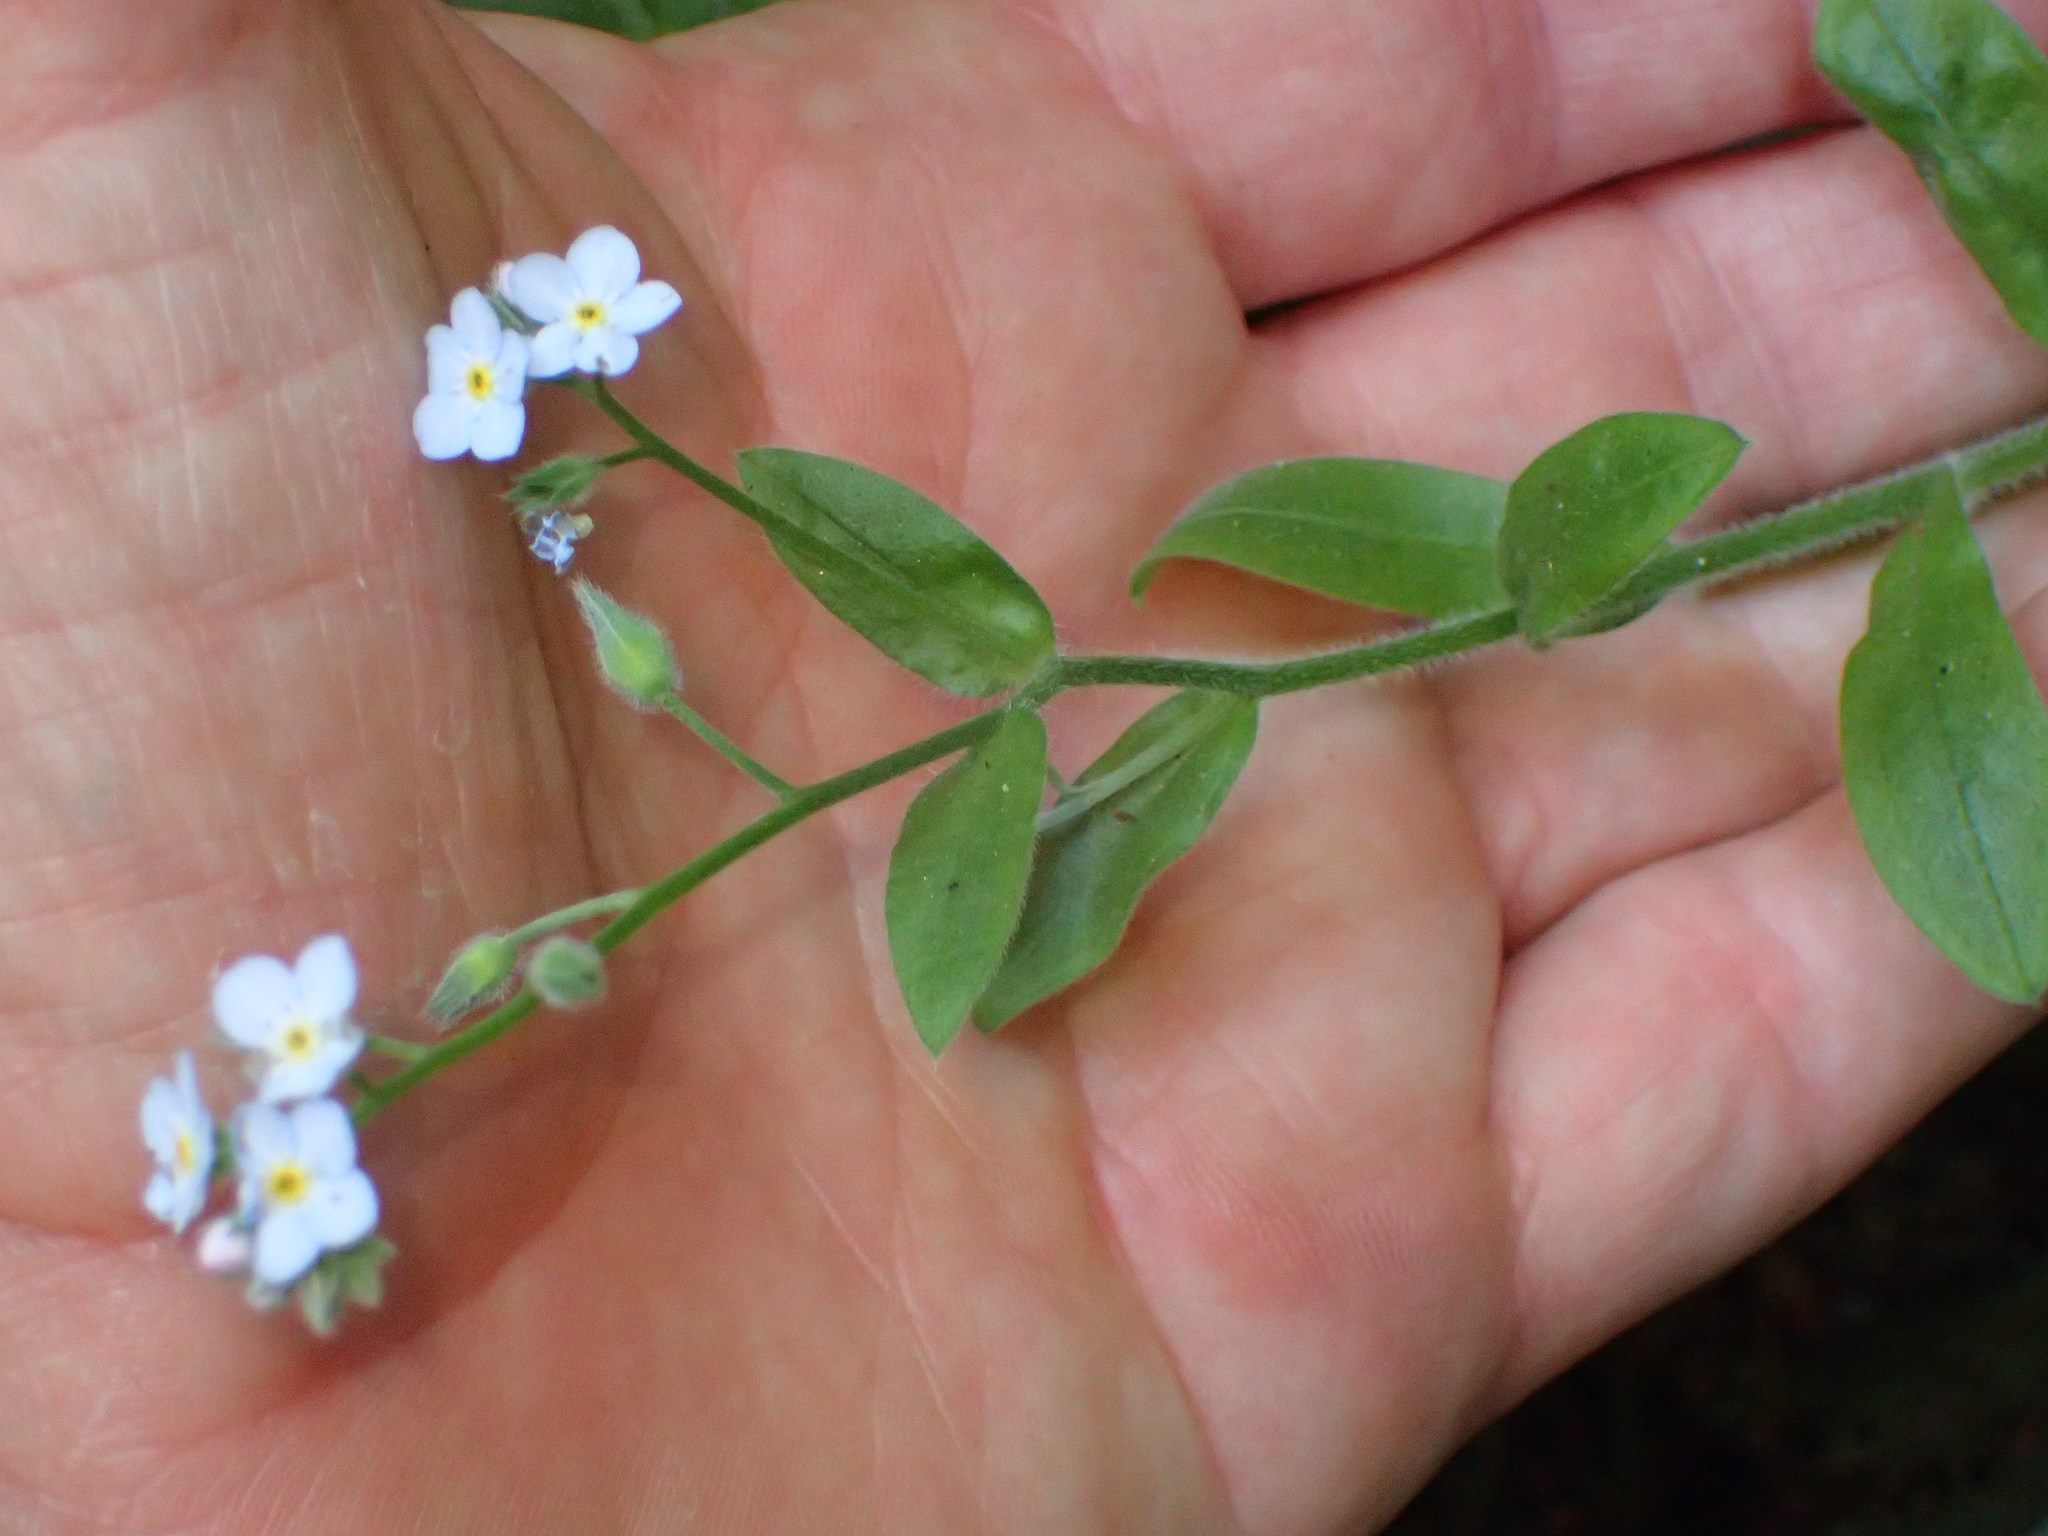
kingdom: Plantae
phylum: Tracheophyta
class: Magnoliopsida
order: Boraginales
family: Boraginaceae
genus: Myosotis
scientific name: Myosotis latifolia
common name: Broadleaf forget-me-not
